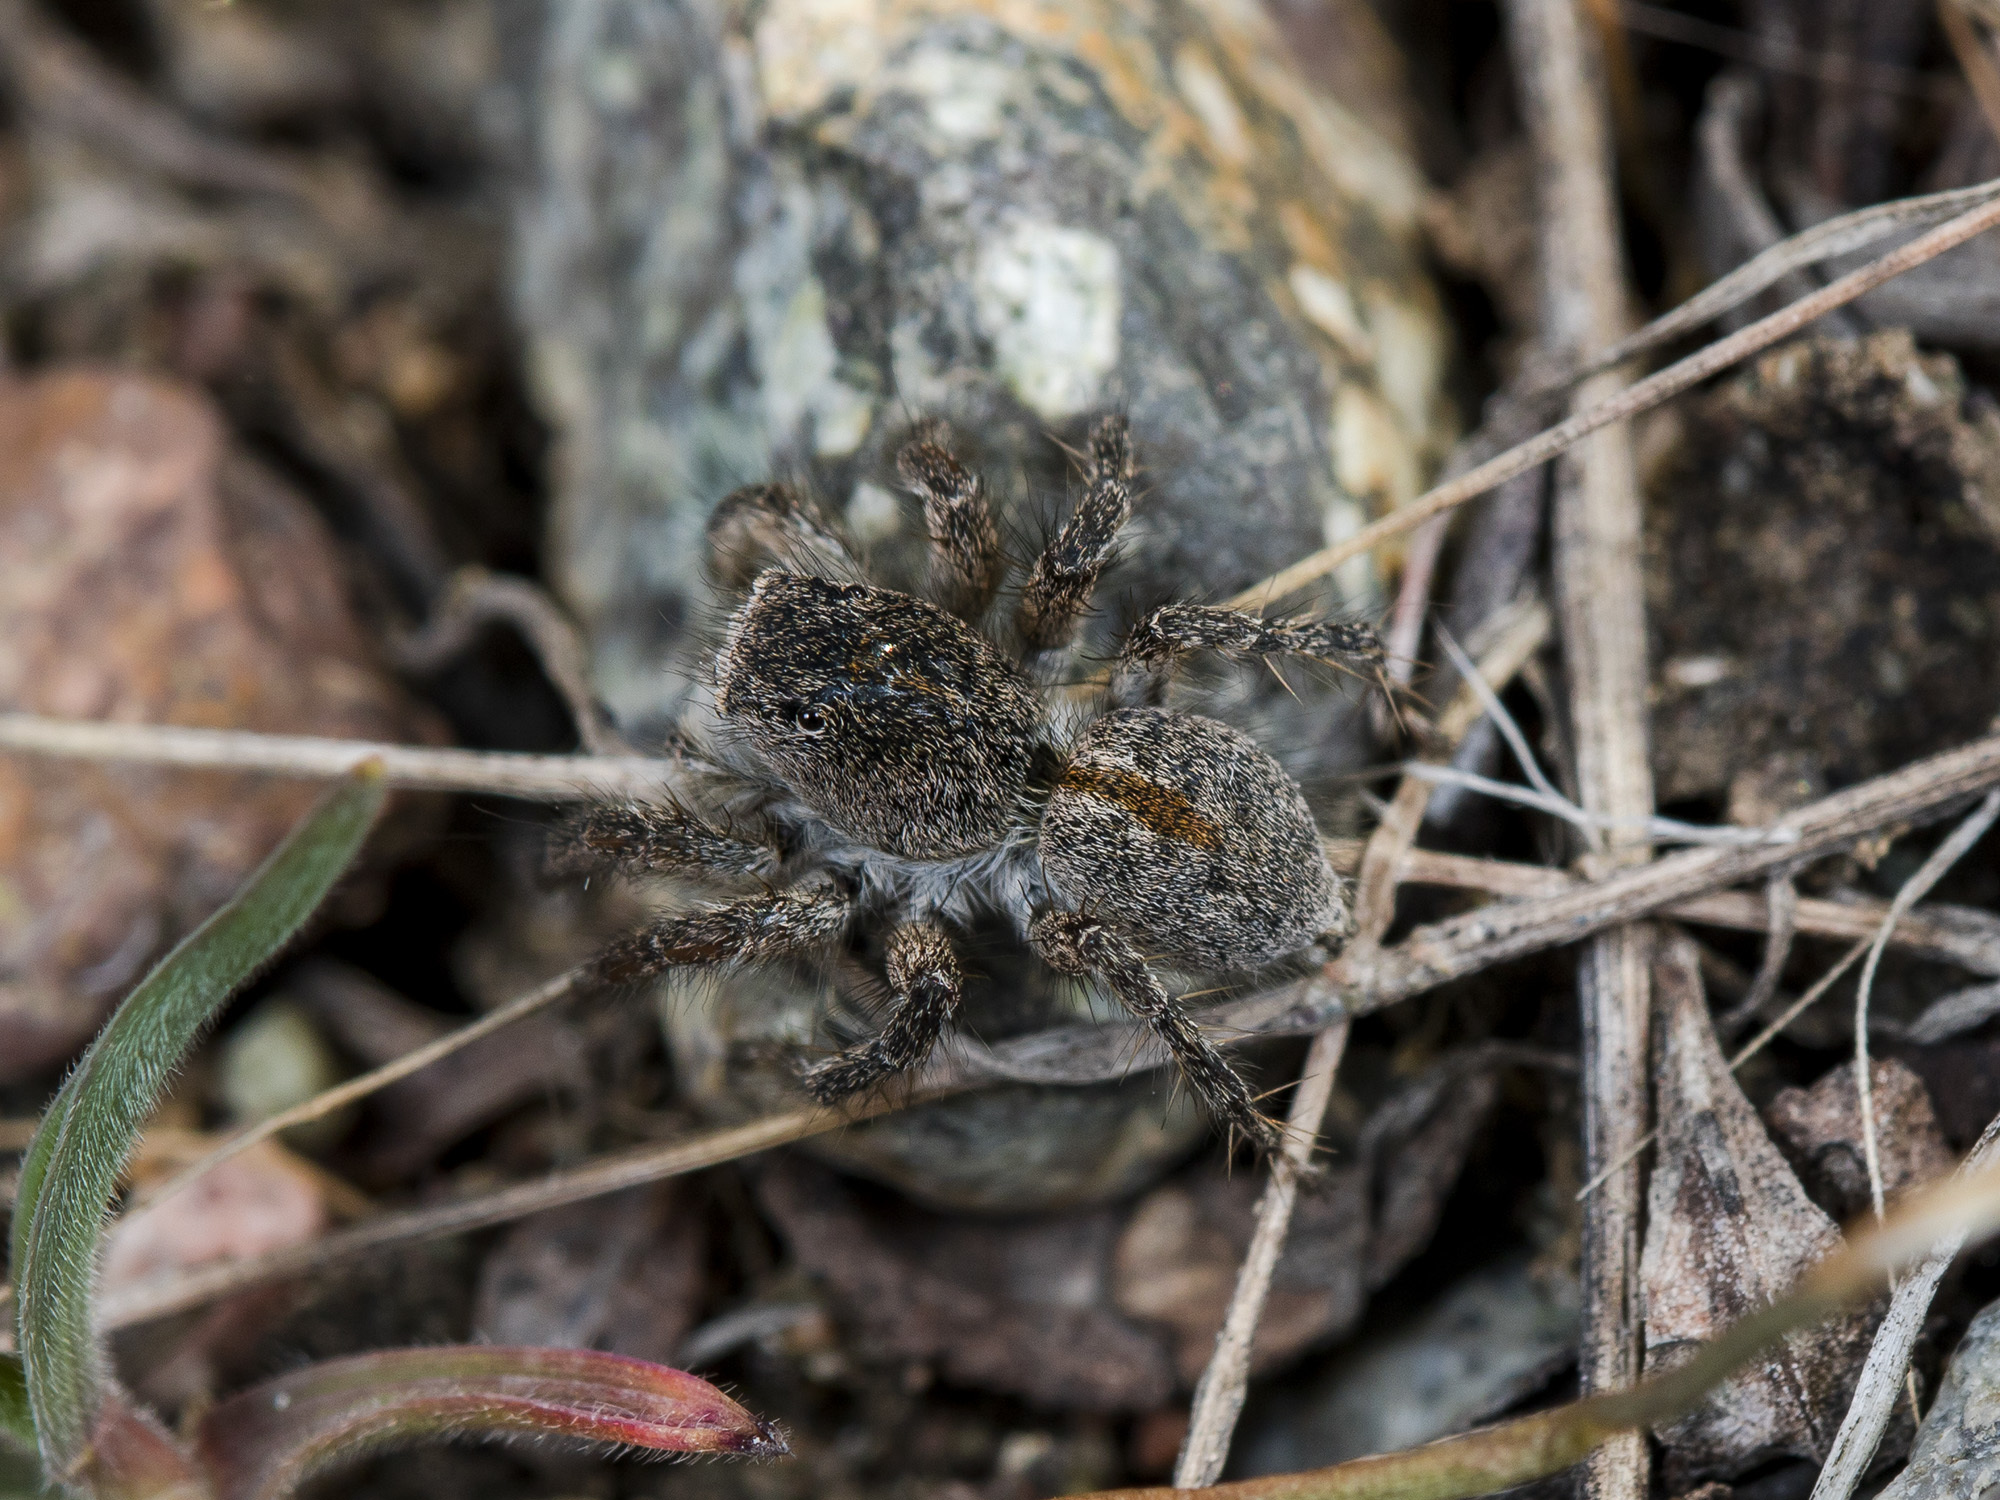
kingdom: Animalia
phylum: Arthropoda
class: Arachnida
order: Araneae
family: Salticidae
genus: Aelurillus
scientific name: Aelurillus dubatolovi
